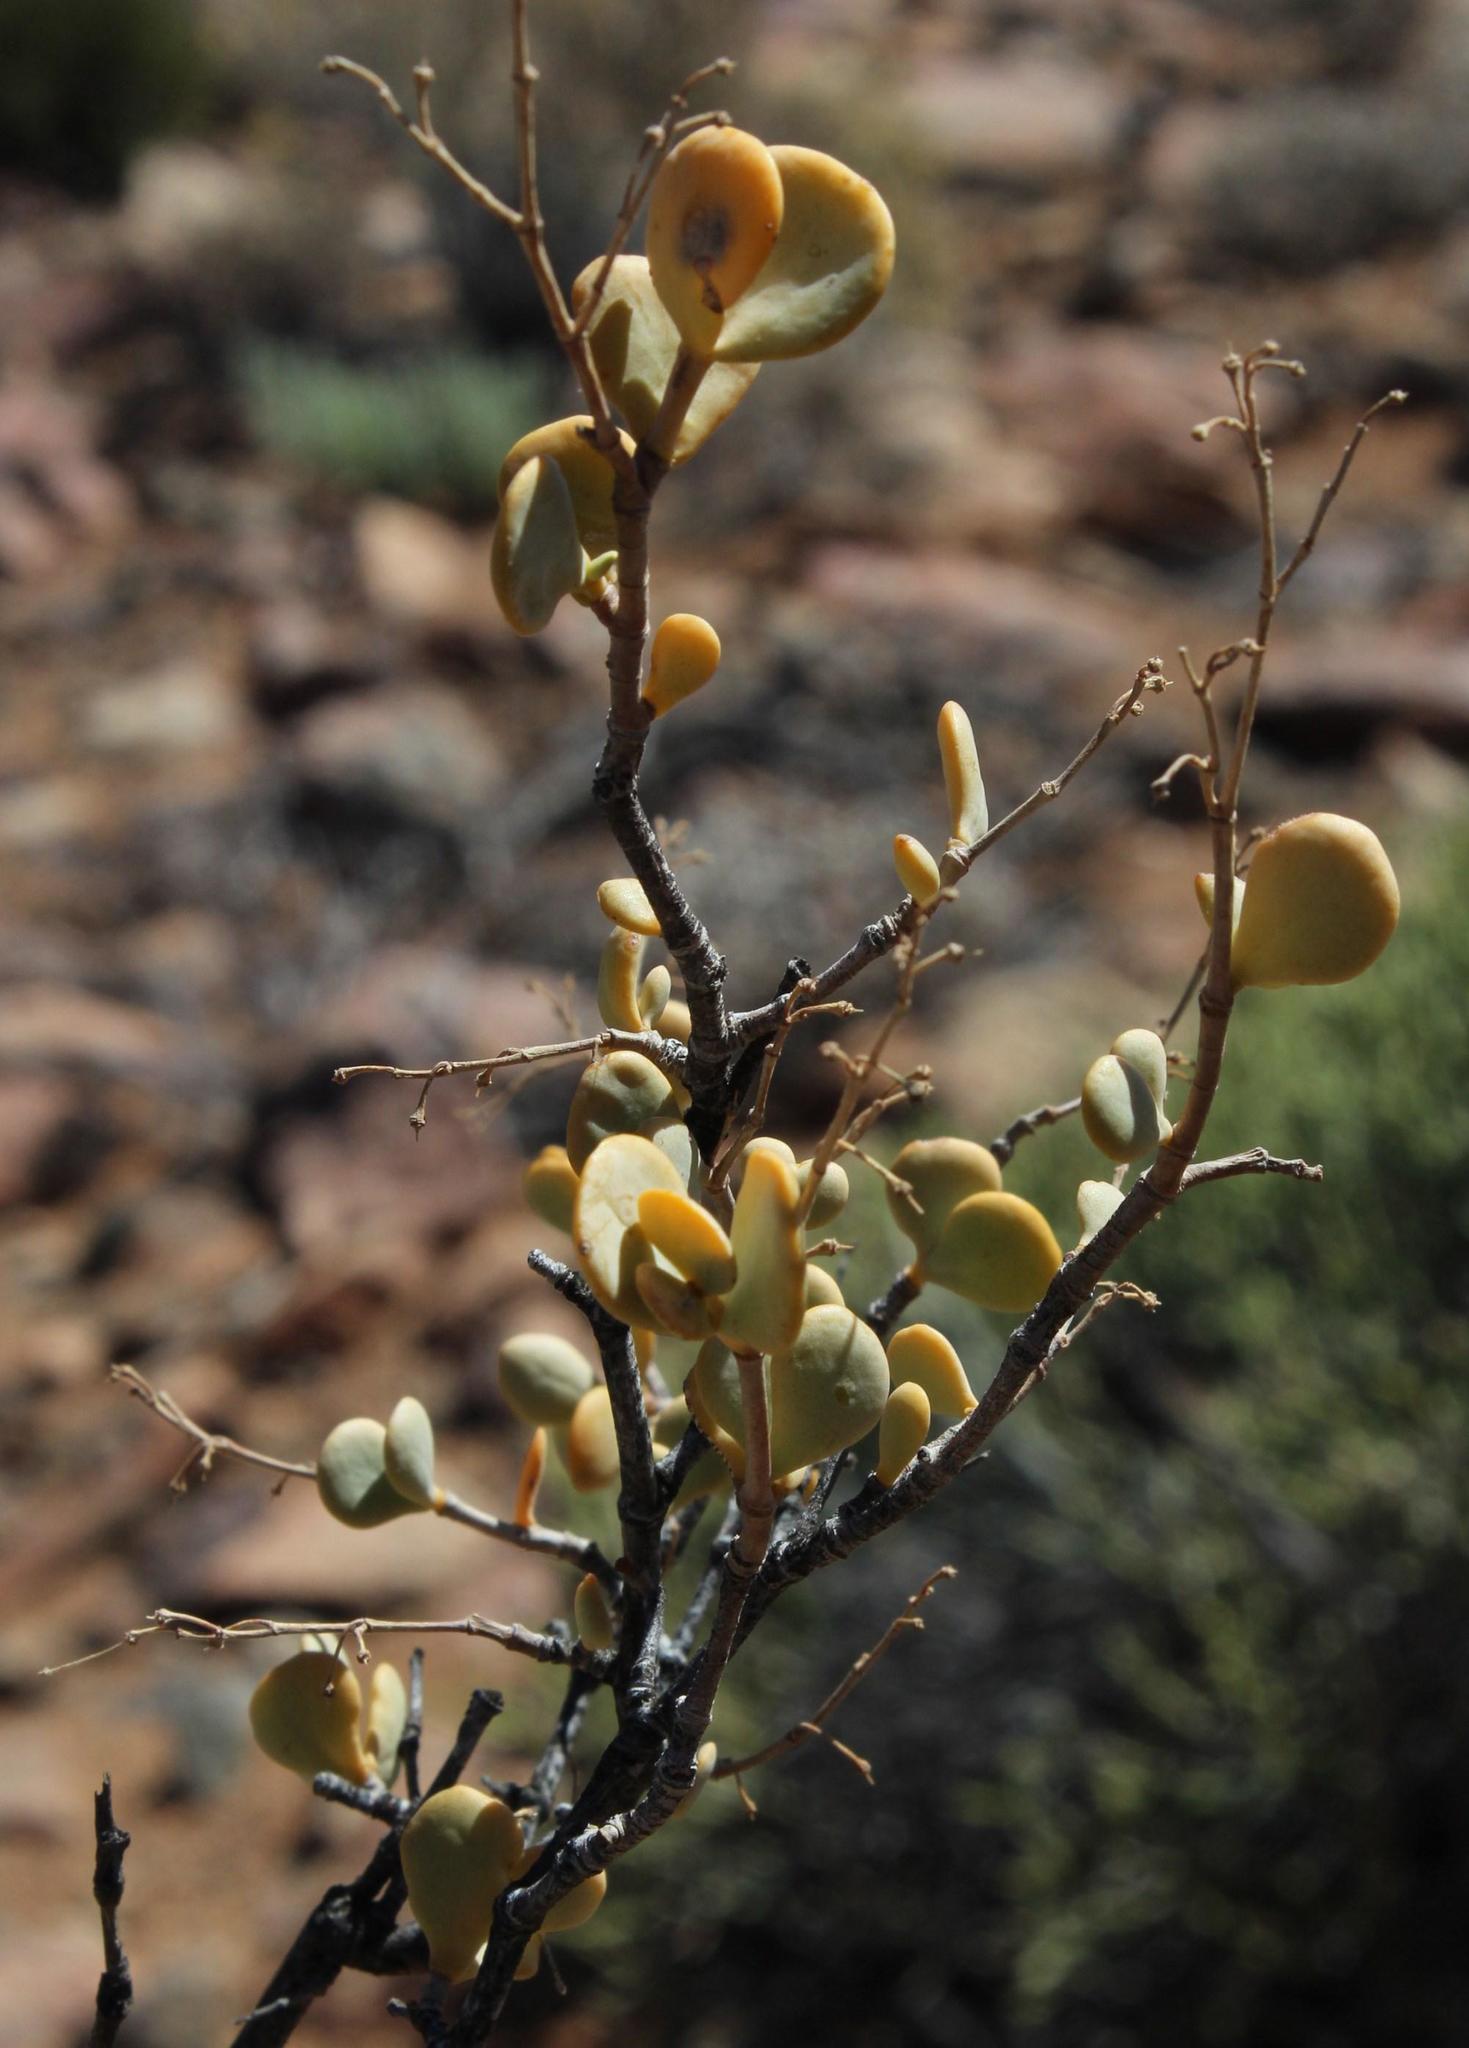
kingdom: Plantae
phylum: Tracheophyta
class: Magnoliopsida
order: Zygophyllales
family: Zygophyllaceae
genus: Tetraena
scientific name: Tetraena prismatocarpa
